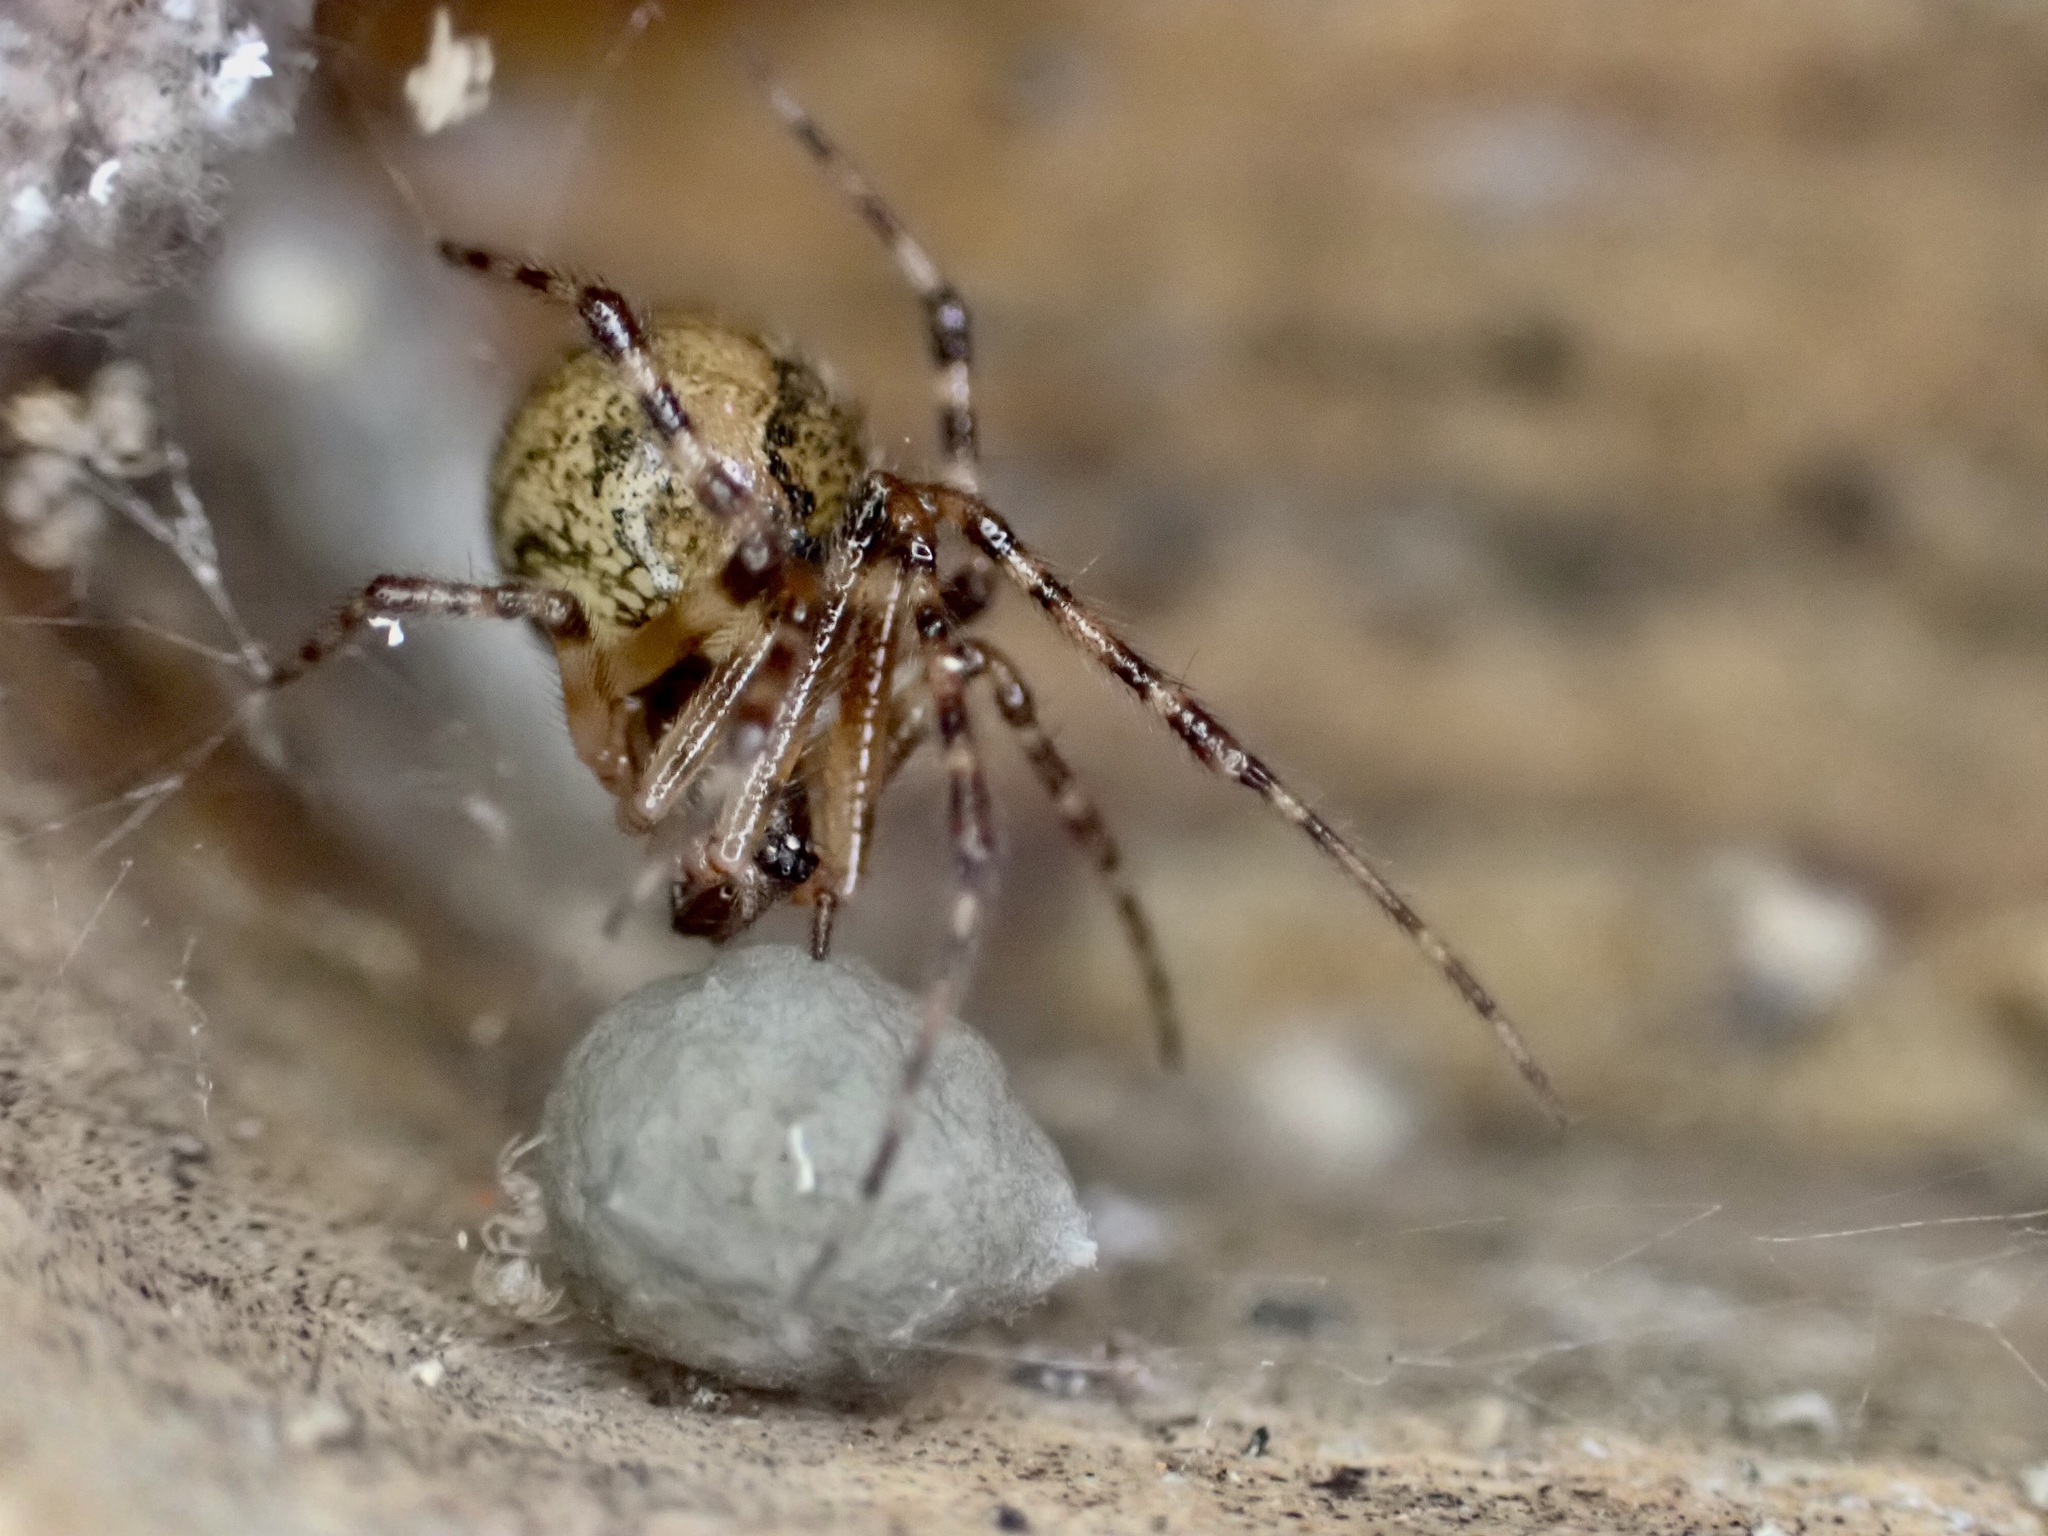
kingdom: Animalia
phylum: Arthropoda
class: Arachnida
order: Araneae
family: Theridiidae
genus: Cryptachaea
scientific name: Cryptachaea veruculata
